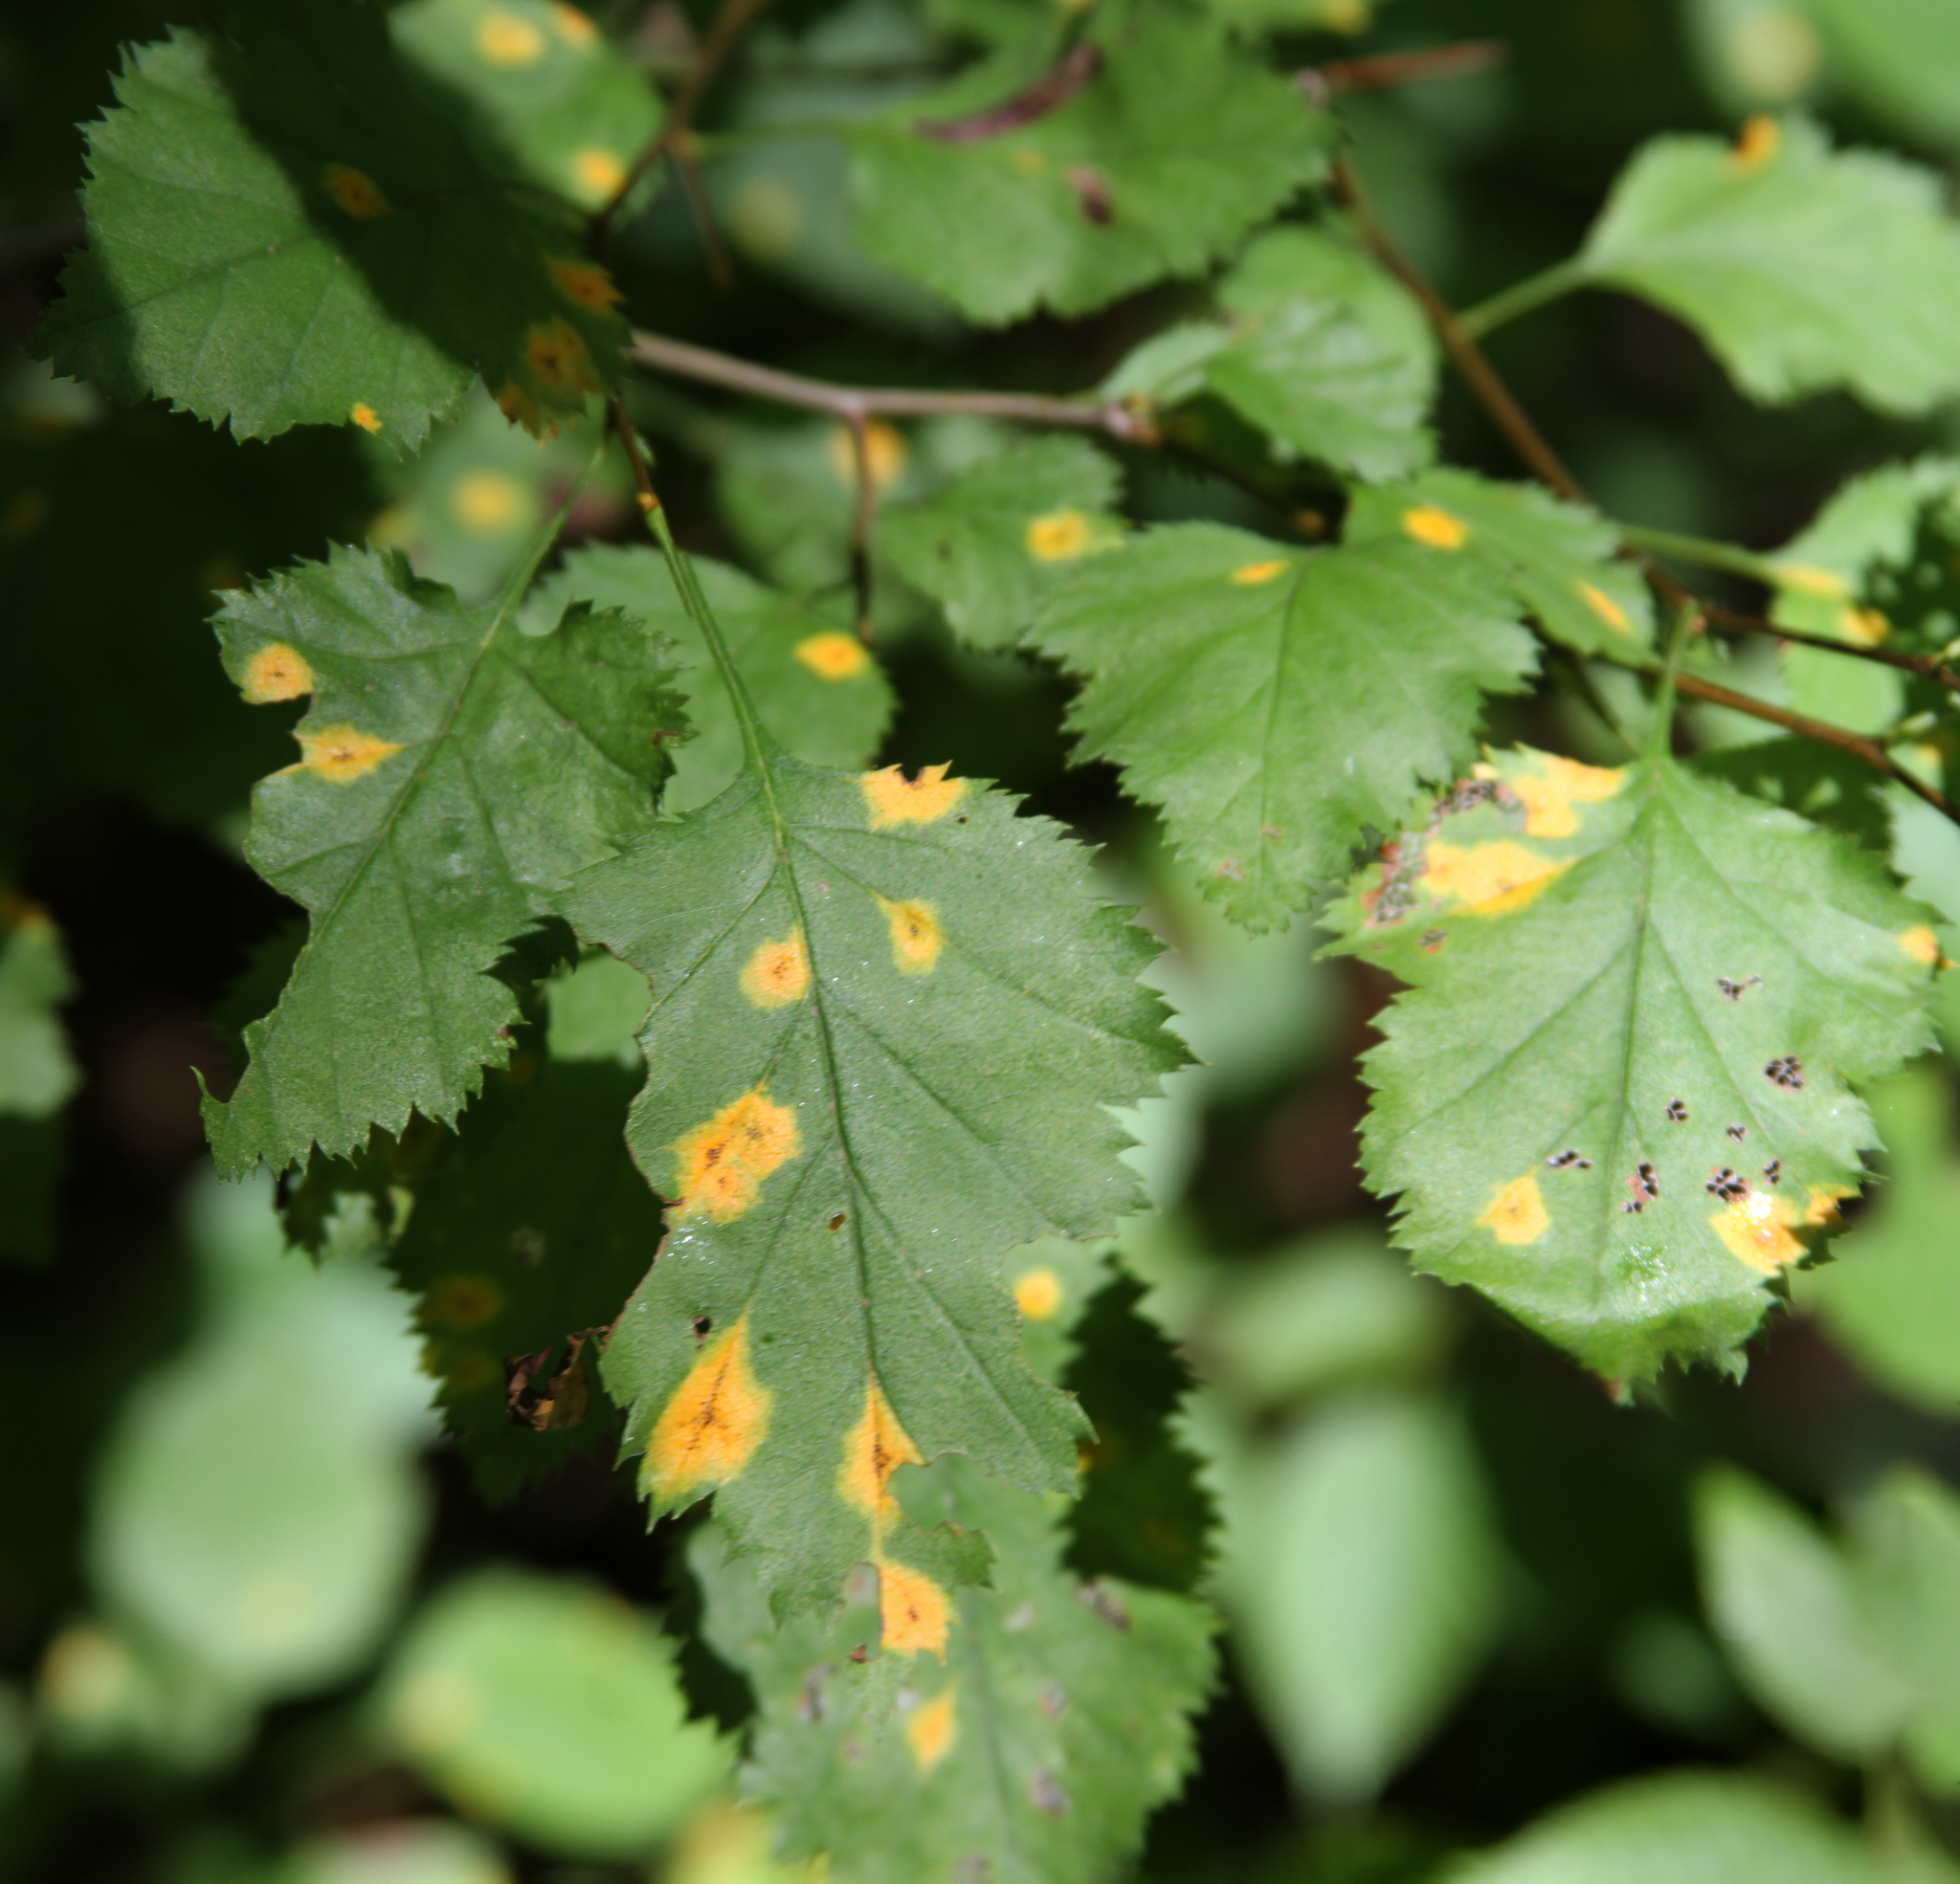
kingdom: Fungi
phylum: Basidiomycota
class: Pucciniomycetes
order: Pucciniales
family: Gymnosporangiaceae
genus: Gymnosporangium
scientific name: Gymnosporangium globosum
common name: Juniper-hawthorn rust
